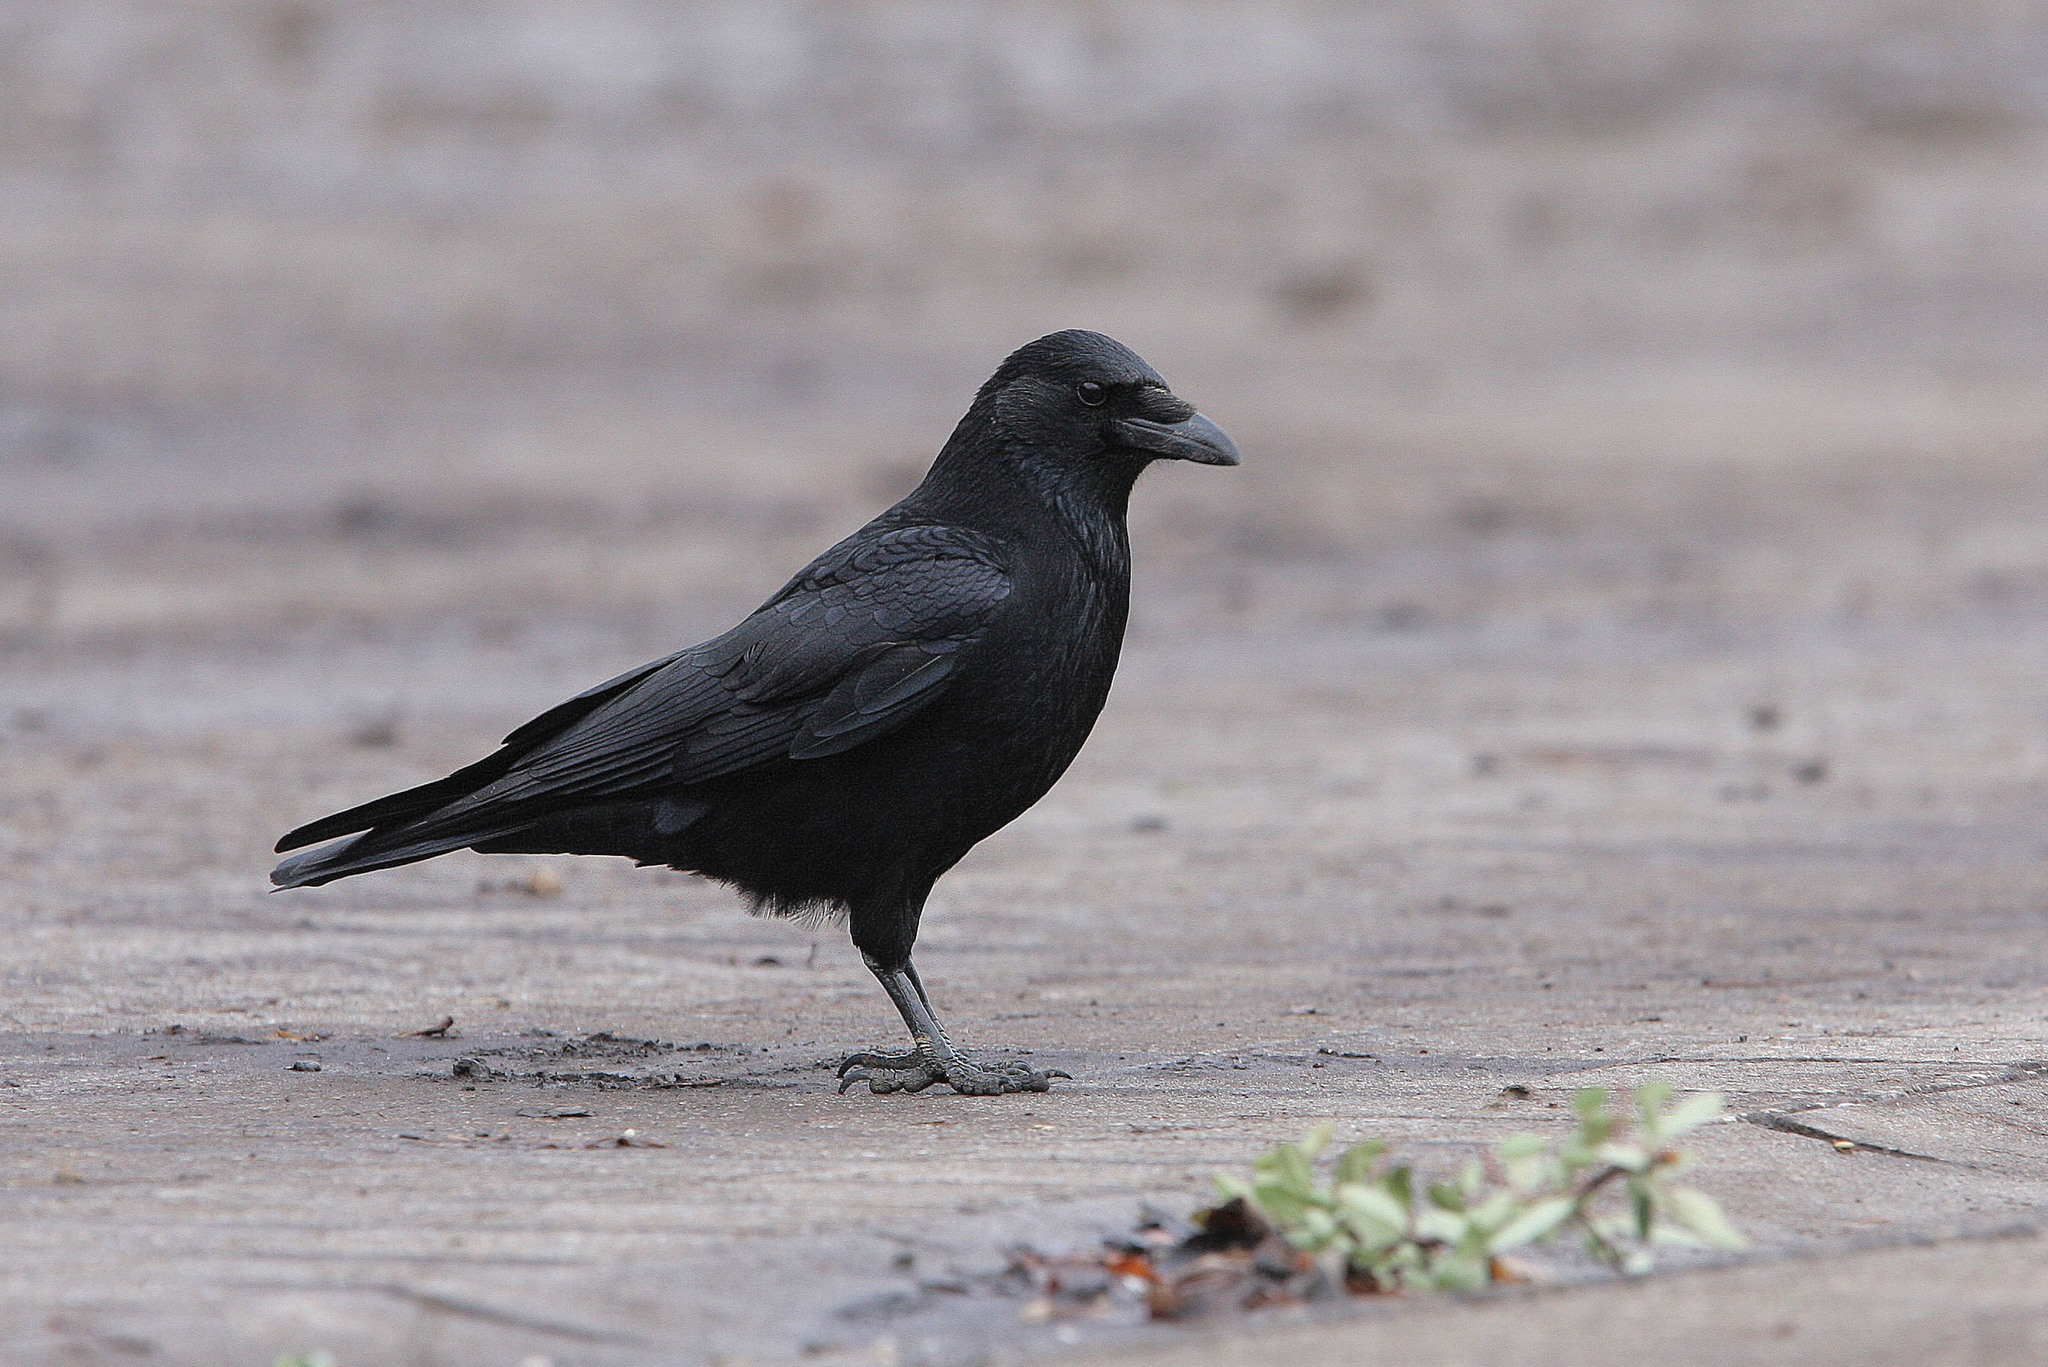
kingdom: Animalia
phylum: Chordata
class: Aves
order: Passeriformes
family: Corvidae
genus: Corvus
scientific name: Corvus corone
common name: Carrion crow
